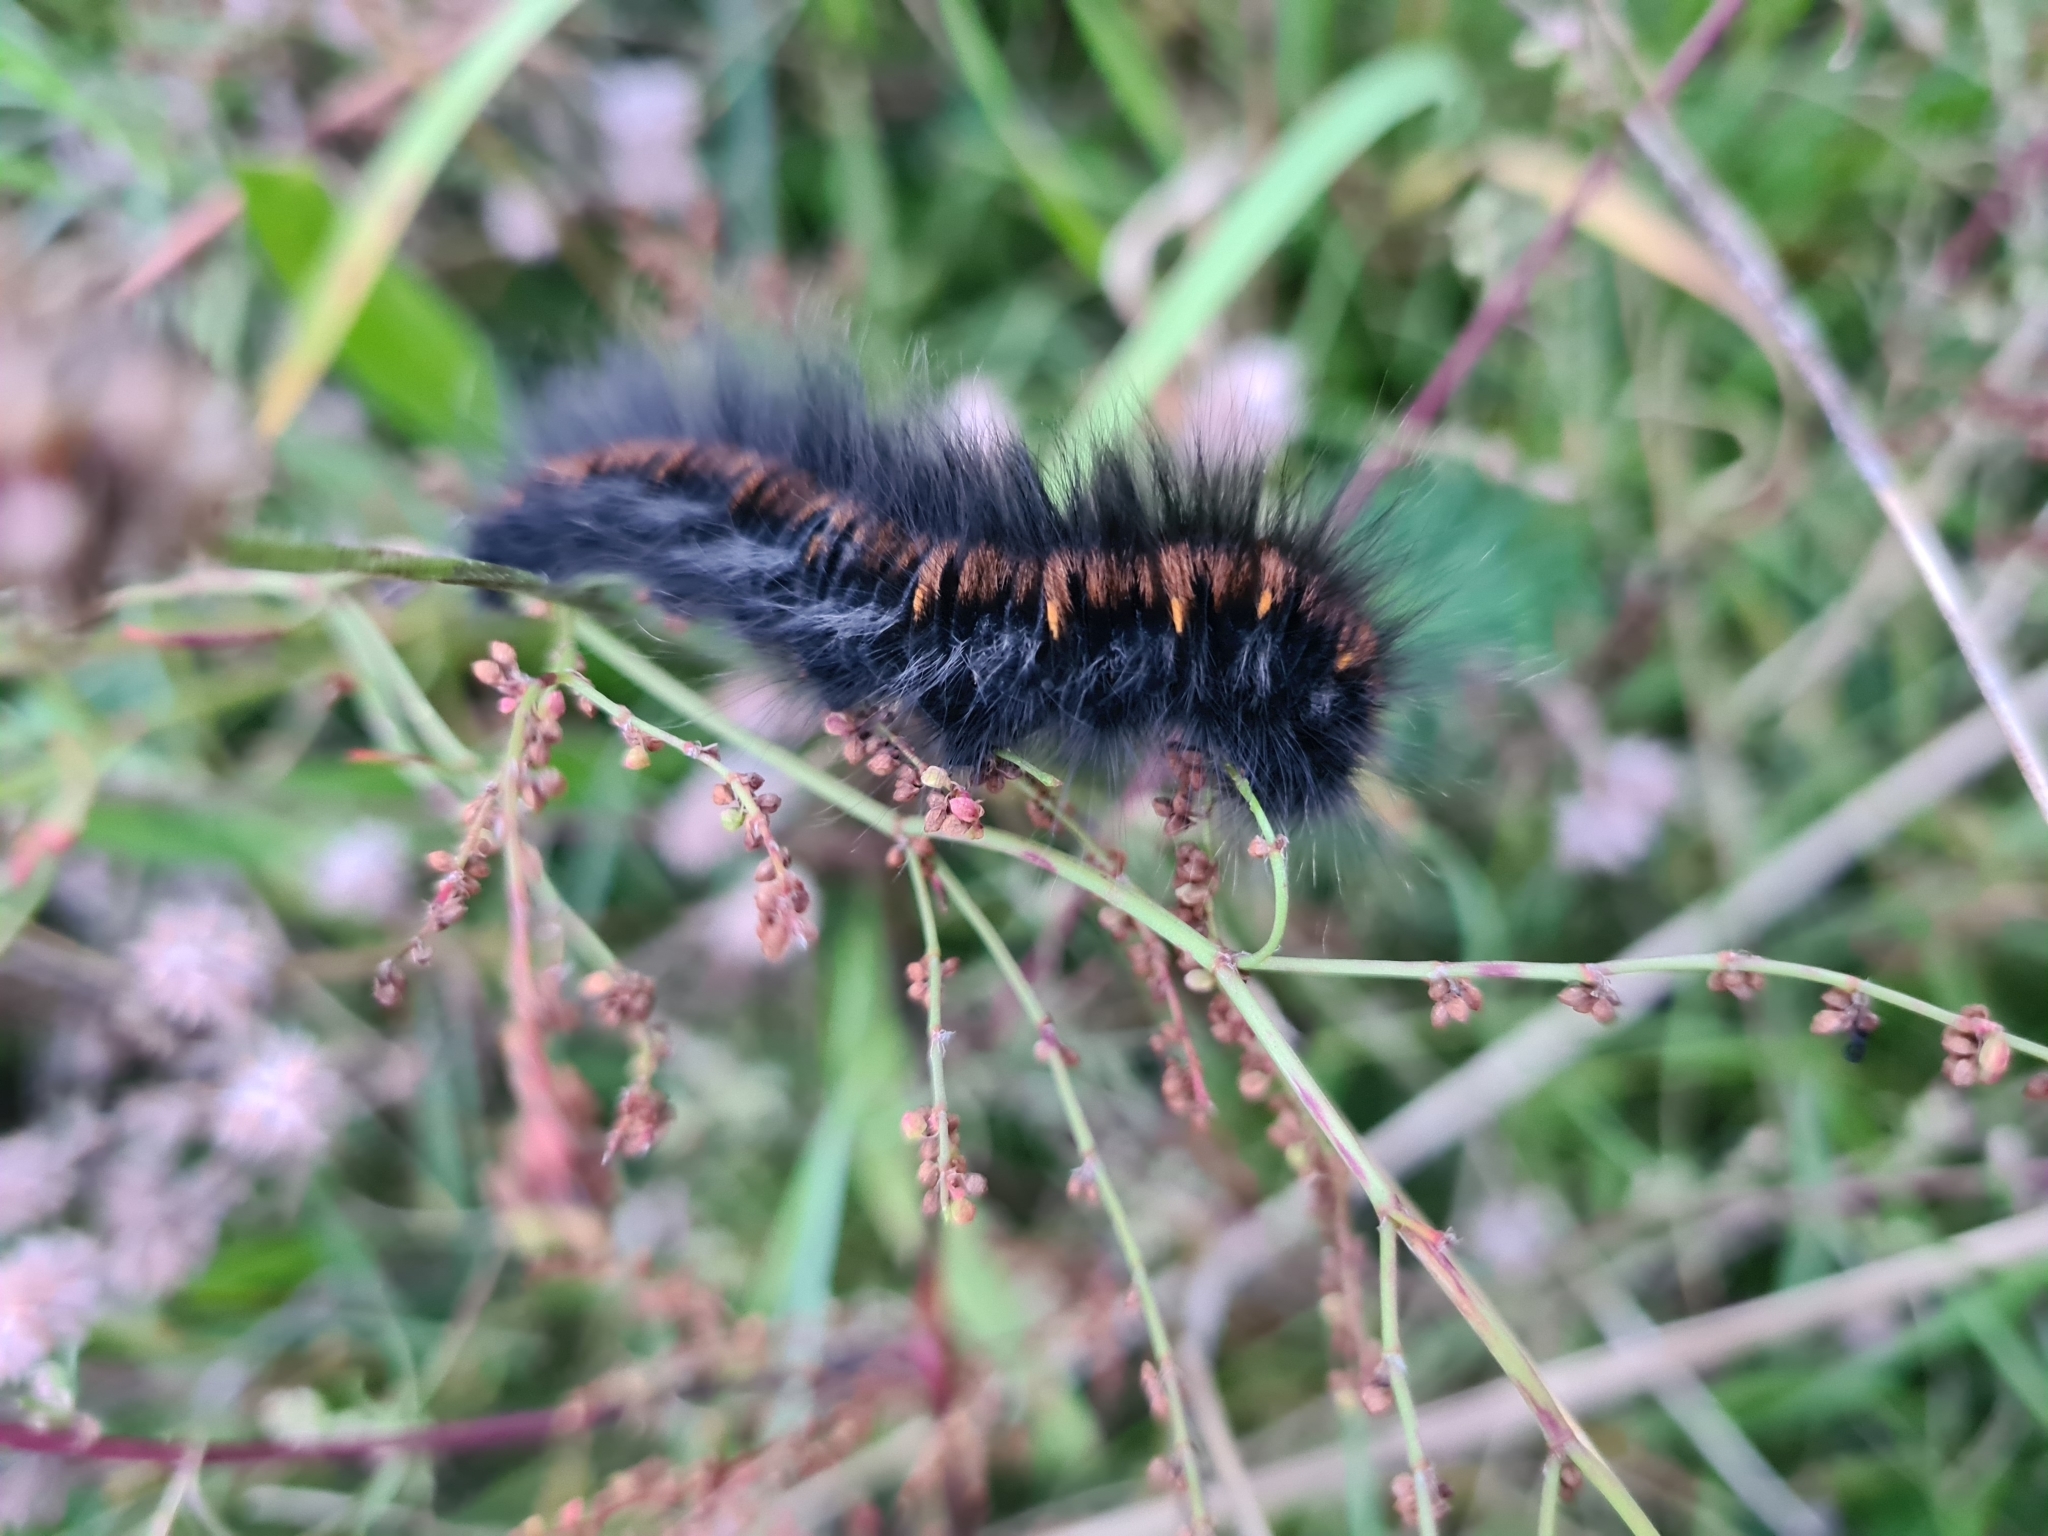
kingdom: Animalia
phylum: Arthropoda
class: Insecta
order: Lepidoptera
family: Lasiocampidae
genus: Macrothylacia
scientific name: Macrothylacia rubi
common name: Fox moth
